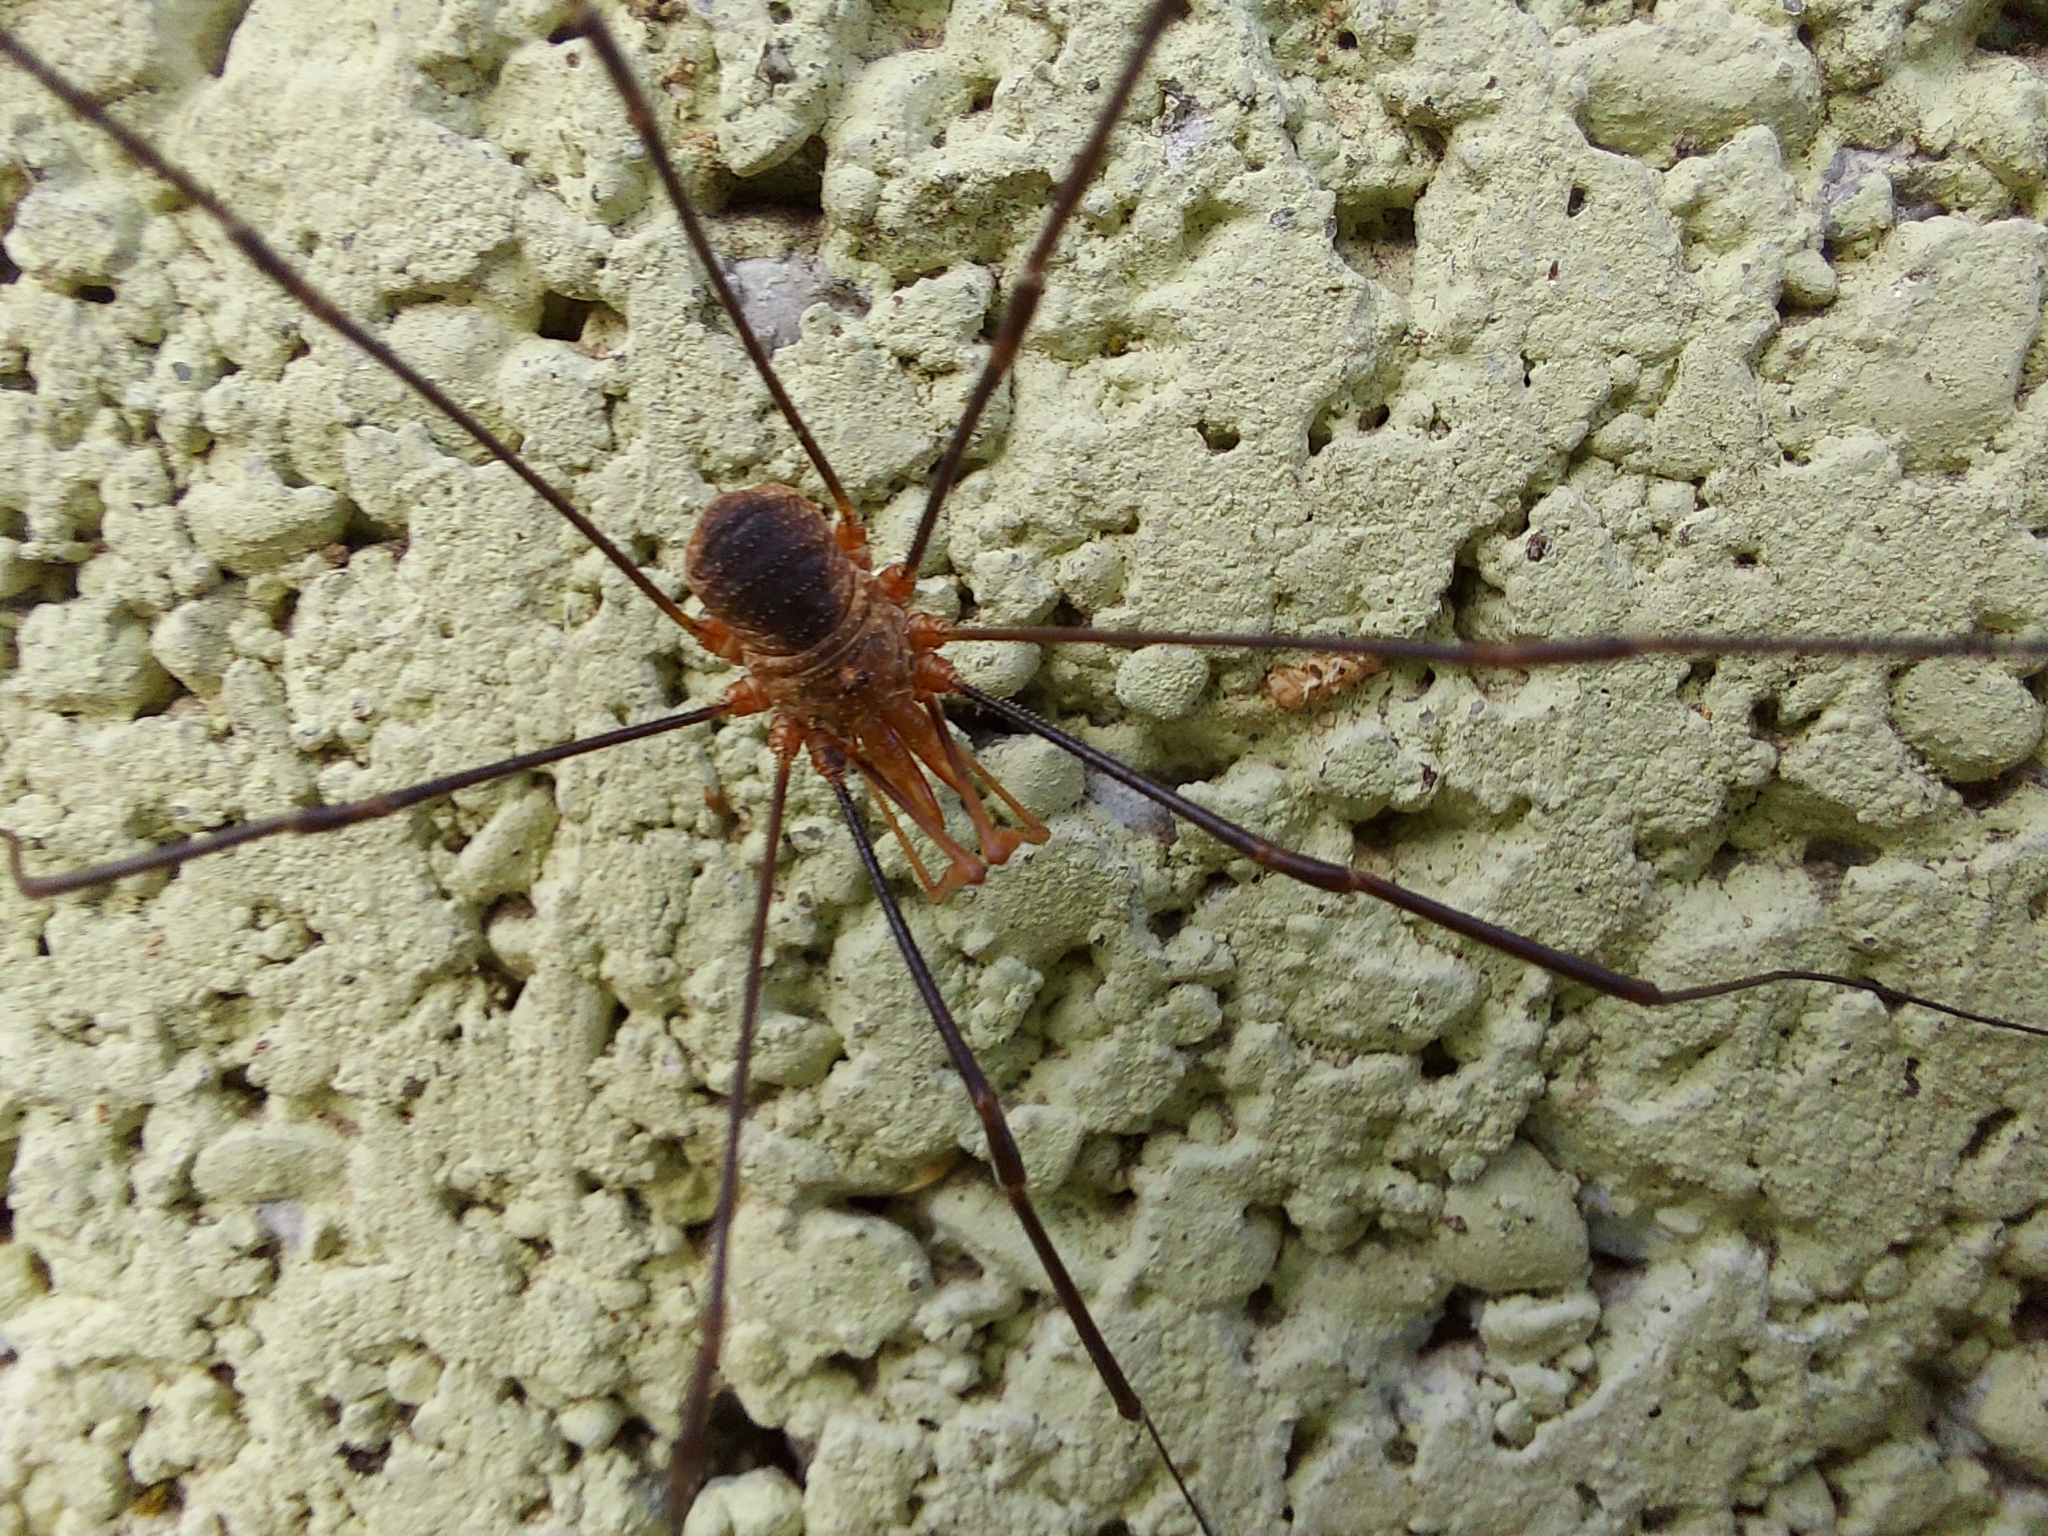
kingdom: Animalia
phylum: Arthropoda
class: Arachnida
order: Opiliones
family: Phalangiidae
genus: Phalangium
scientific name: Phalangium opilio
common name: Daddy longleg
